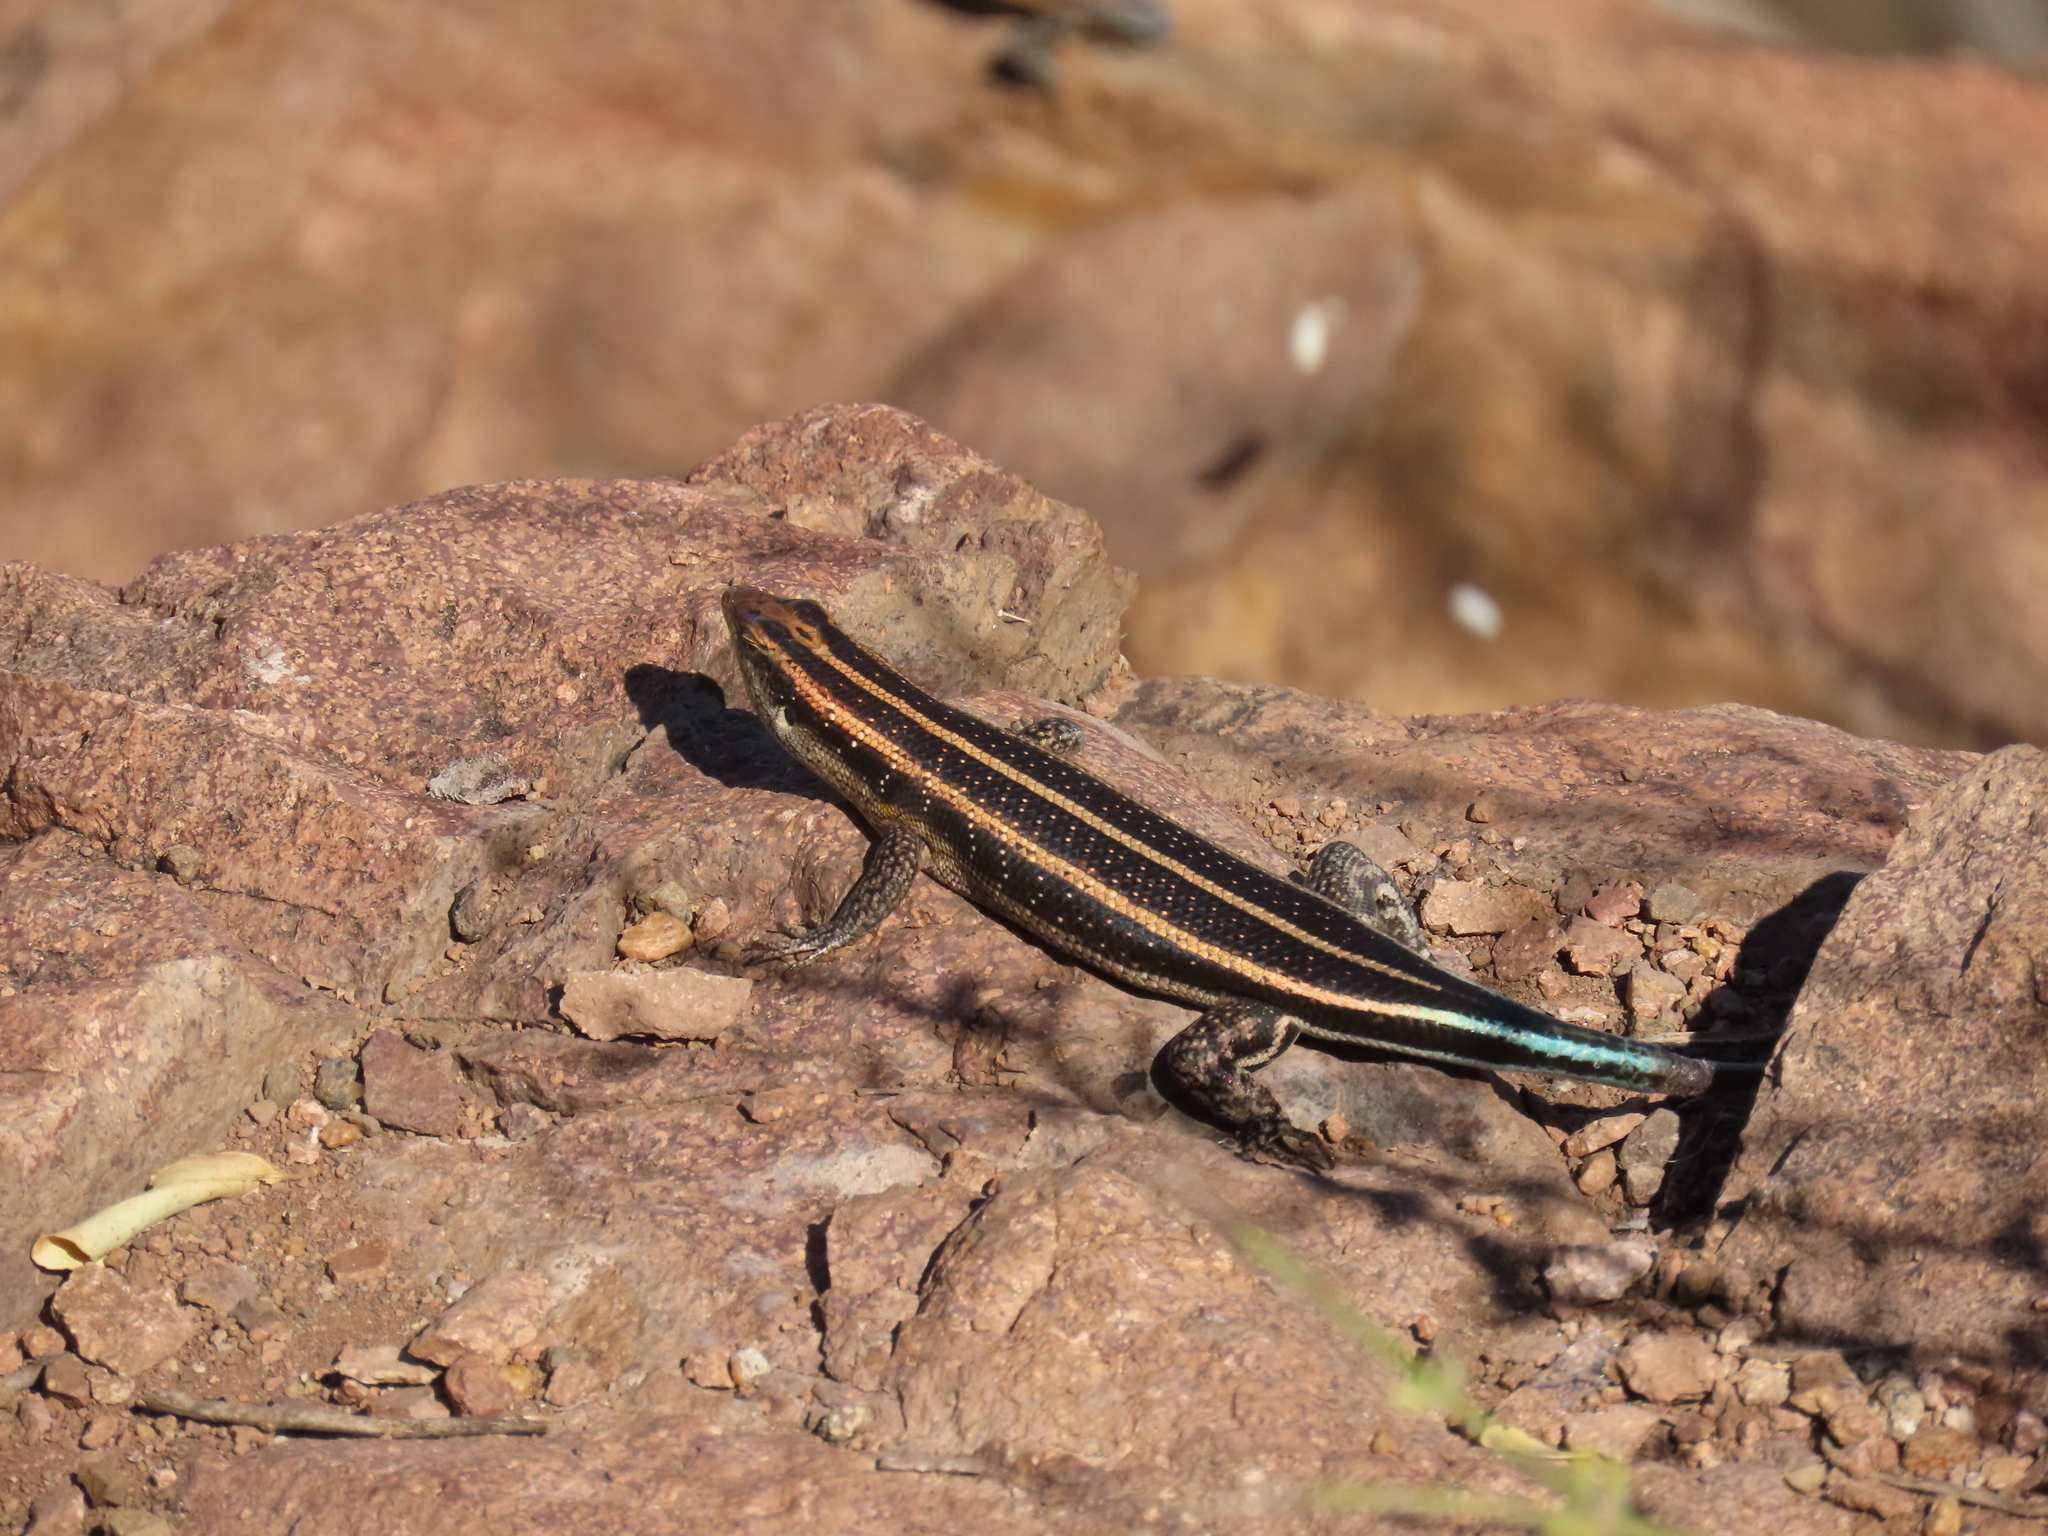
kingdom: Animalia
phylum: Chordata
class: Squamata
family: Scincidae
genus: Trachylepis
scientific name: Trachylepis margaritifera
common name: Rainbow skink
